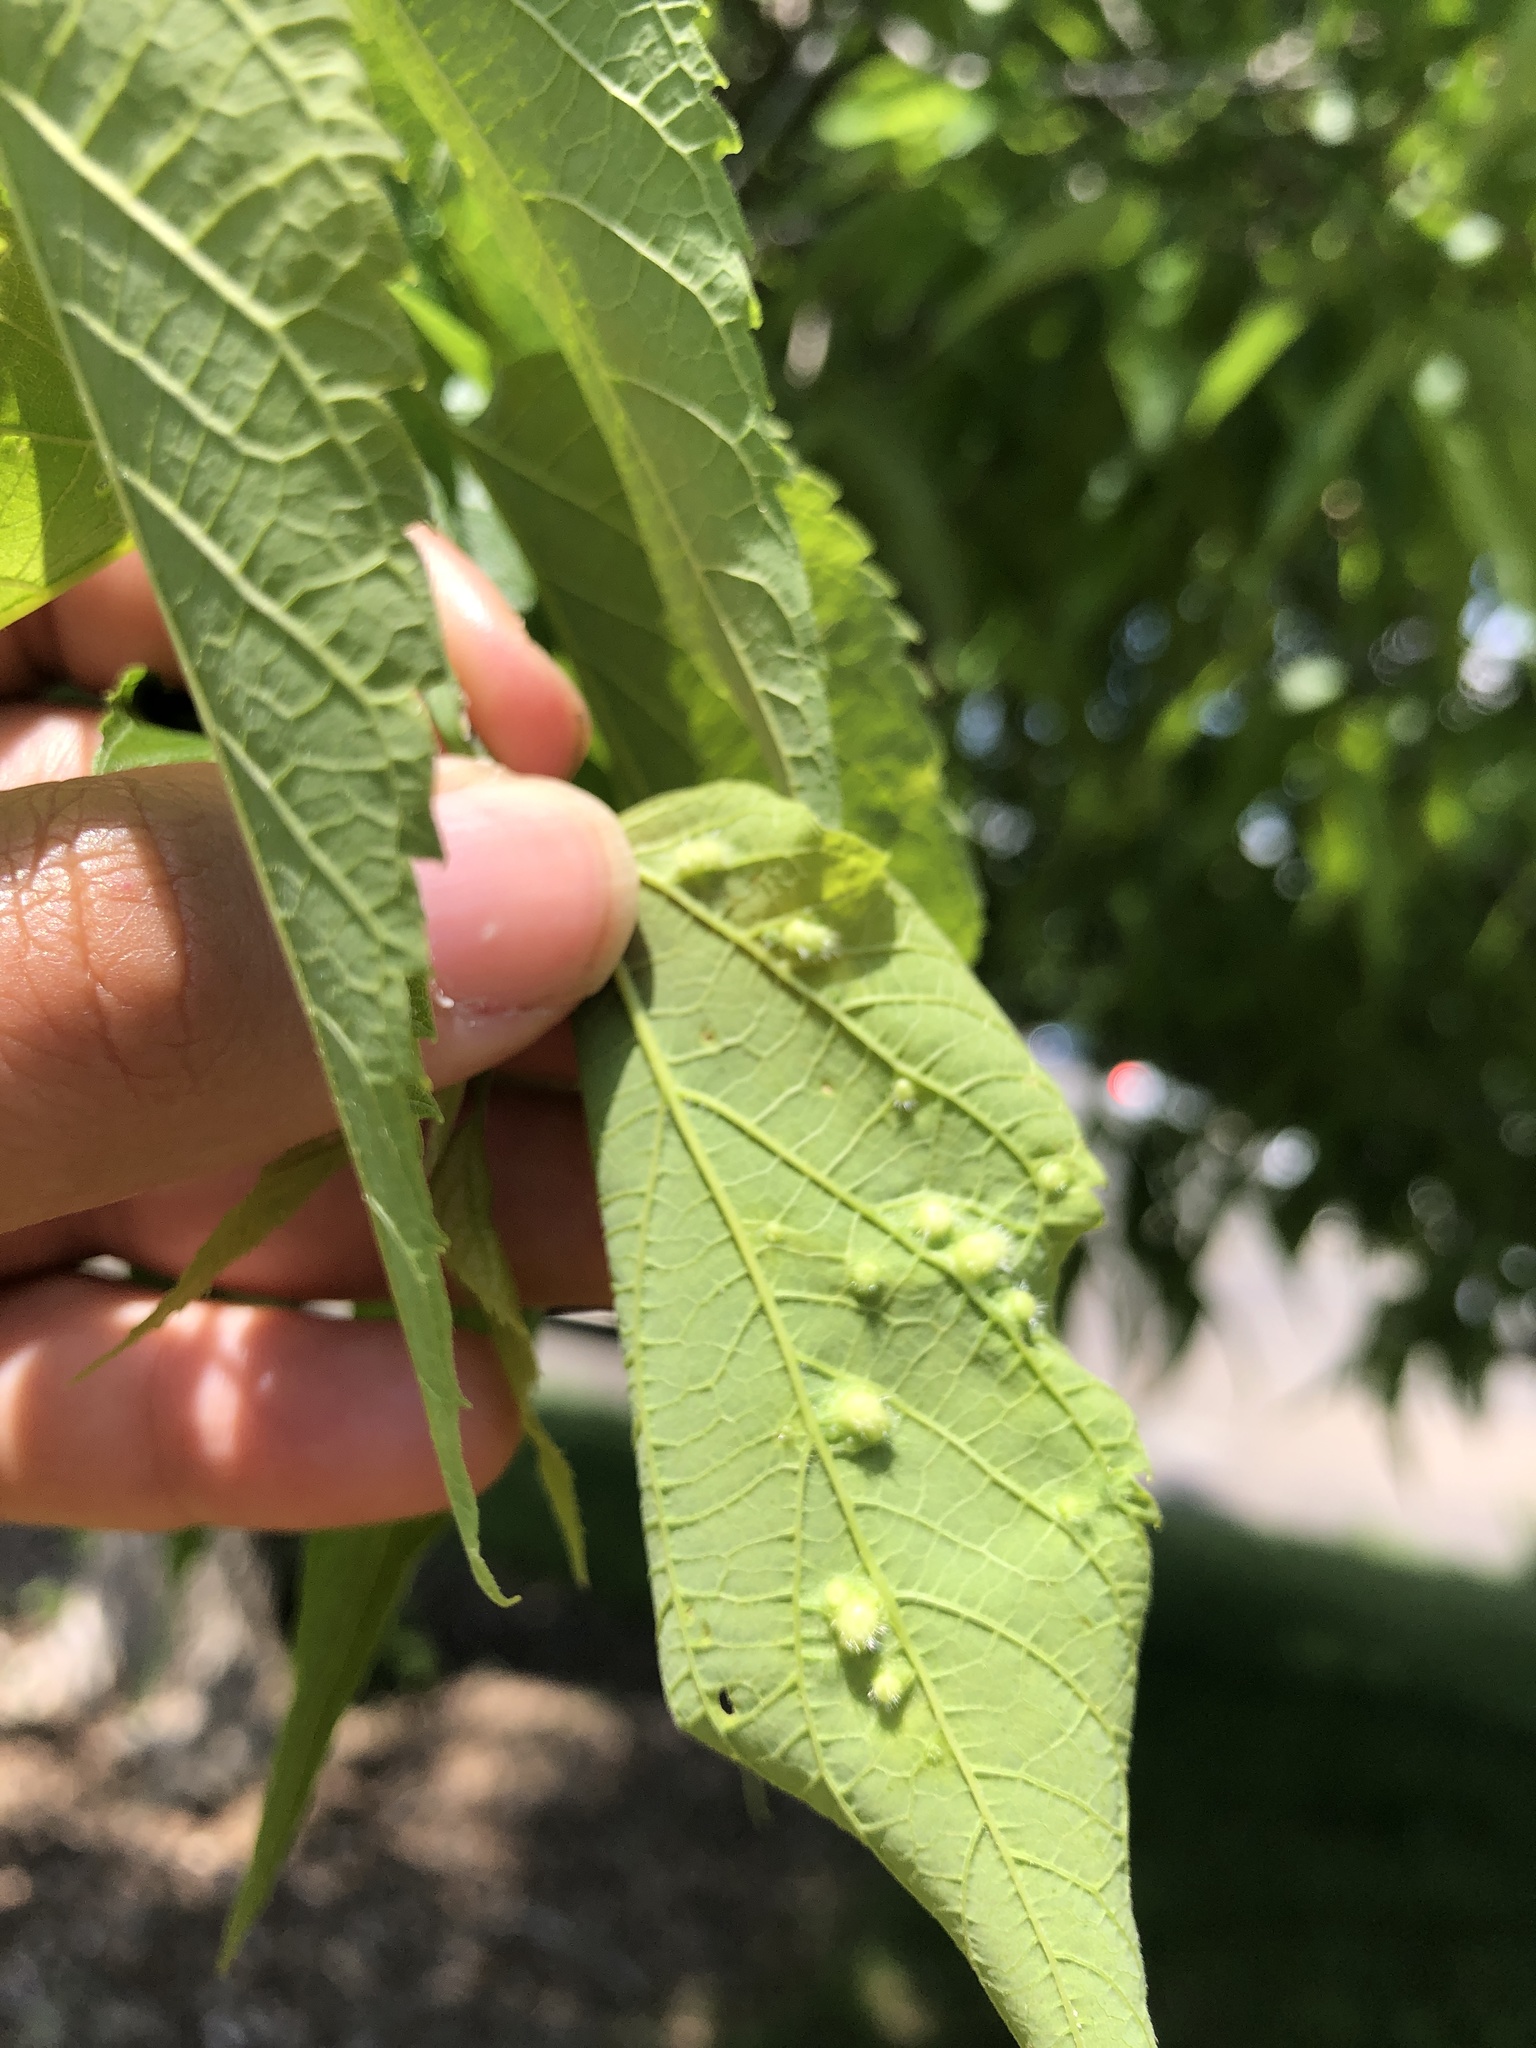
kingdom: Animalia
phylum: Arthropoda
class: Insecta
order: Hemiptera
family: Aphalaridae
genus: Pachypsylla
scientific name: Pachypsylla celtidismamma
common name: Hackberry nipplegall psyllid
